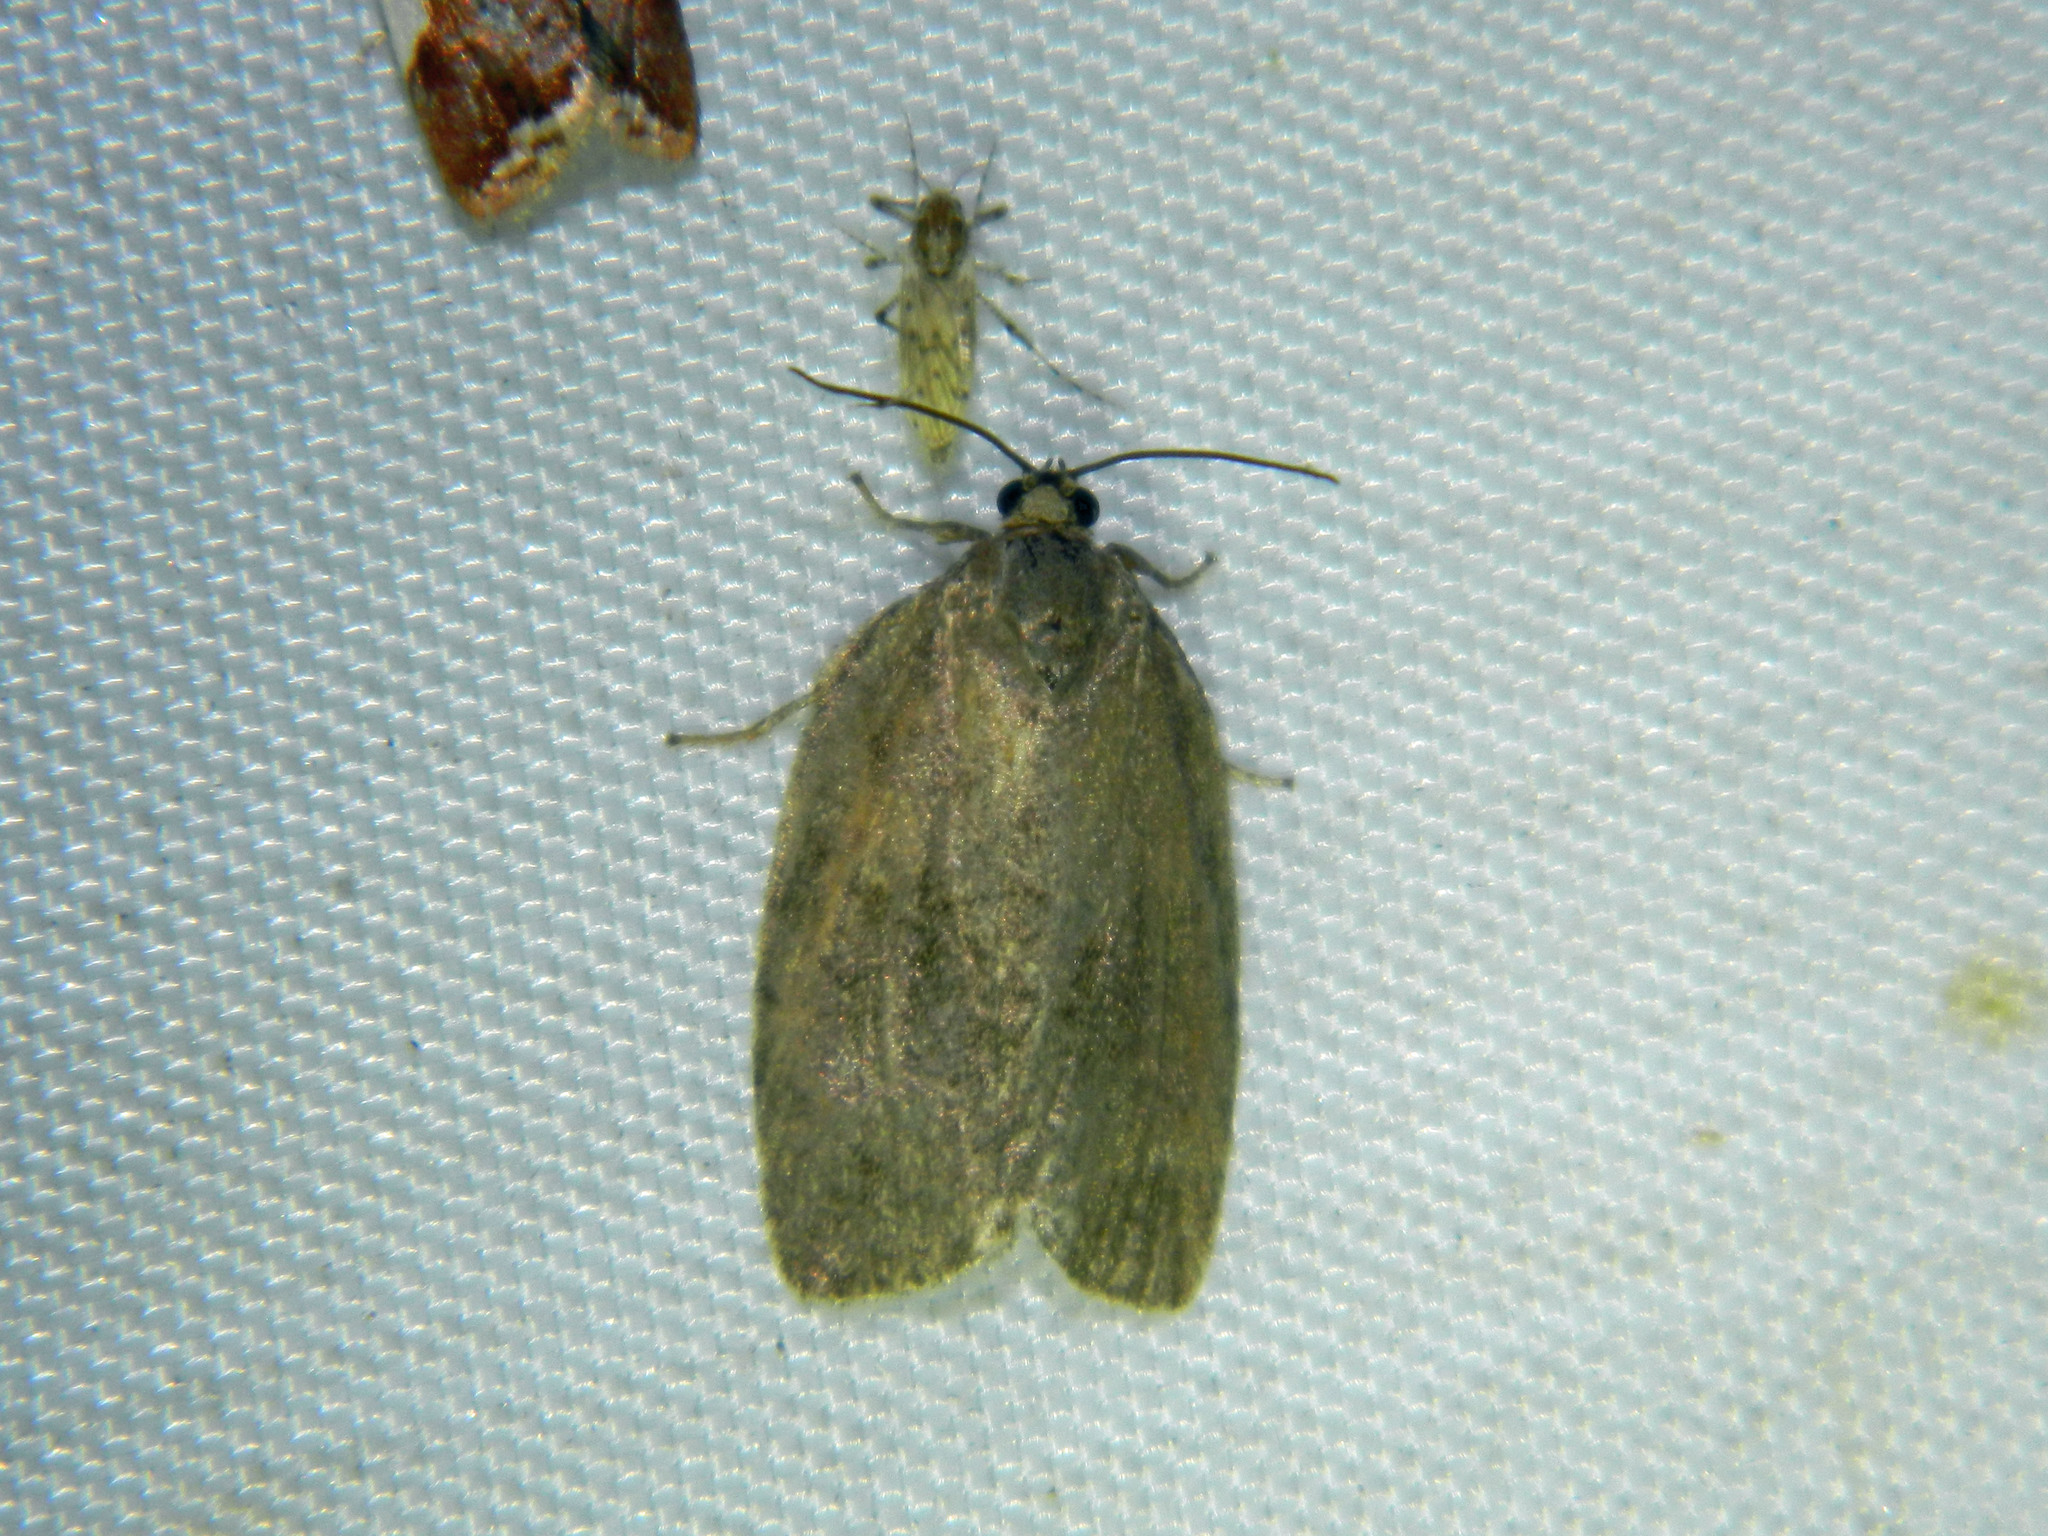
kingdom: Animalia
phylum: Arthropoda
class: Insecta
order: Lepidoptera
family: Tortricidae
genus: Choristoneura
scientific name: Choristoneura conflictana
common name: Large aspen tortrix
